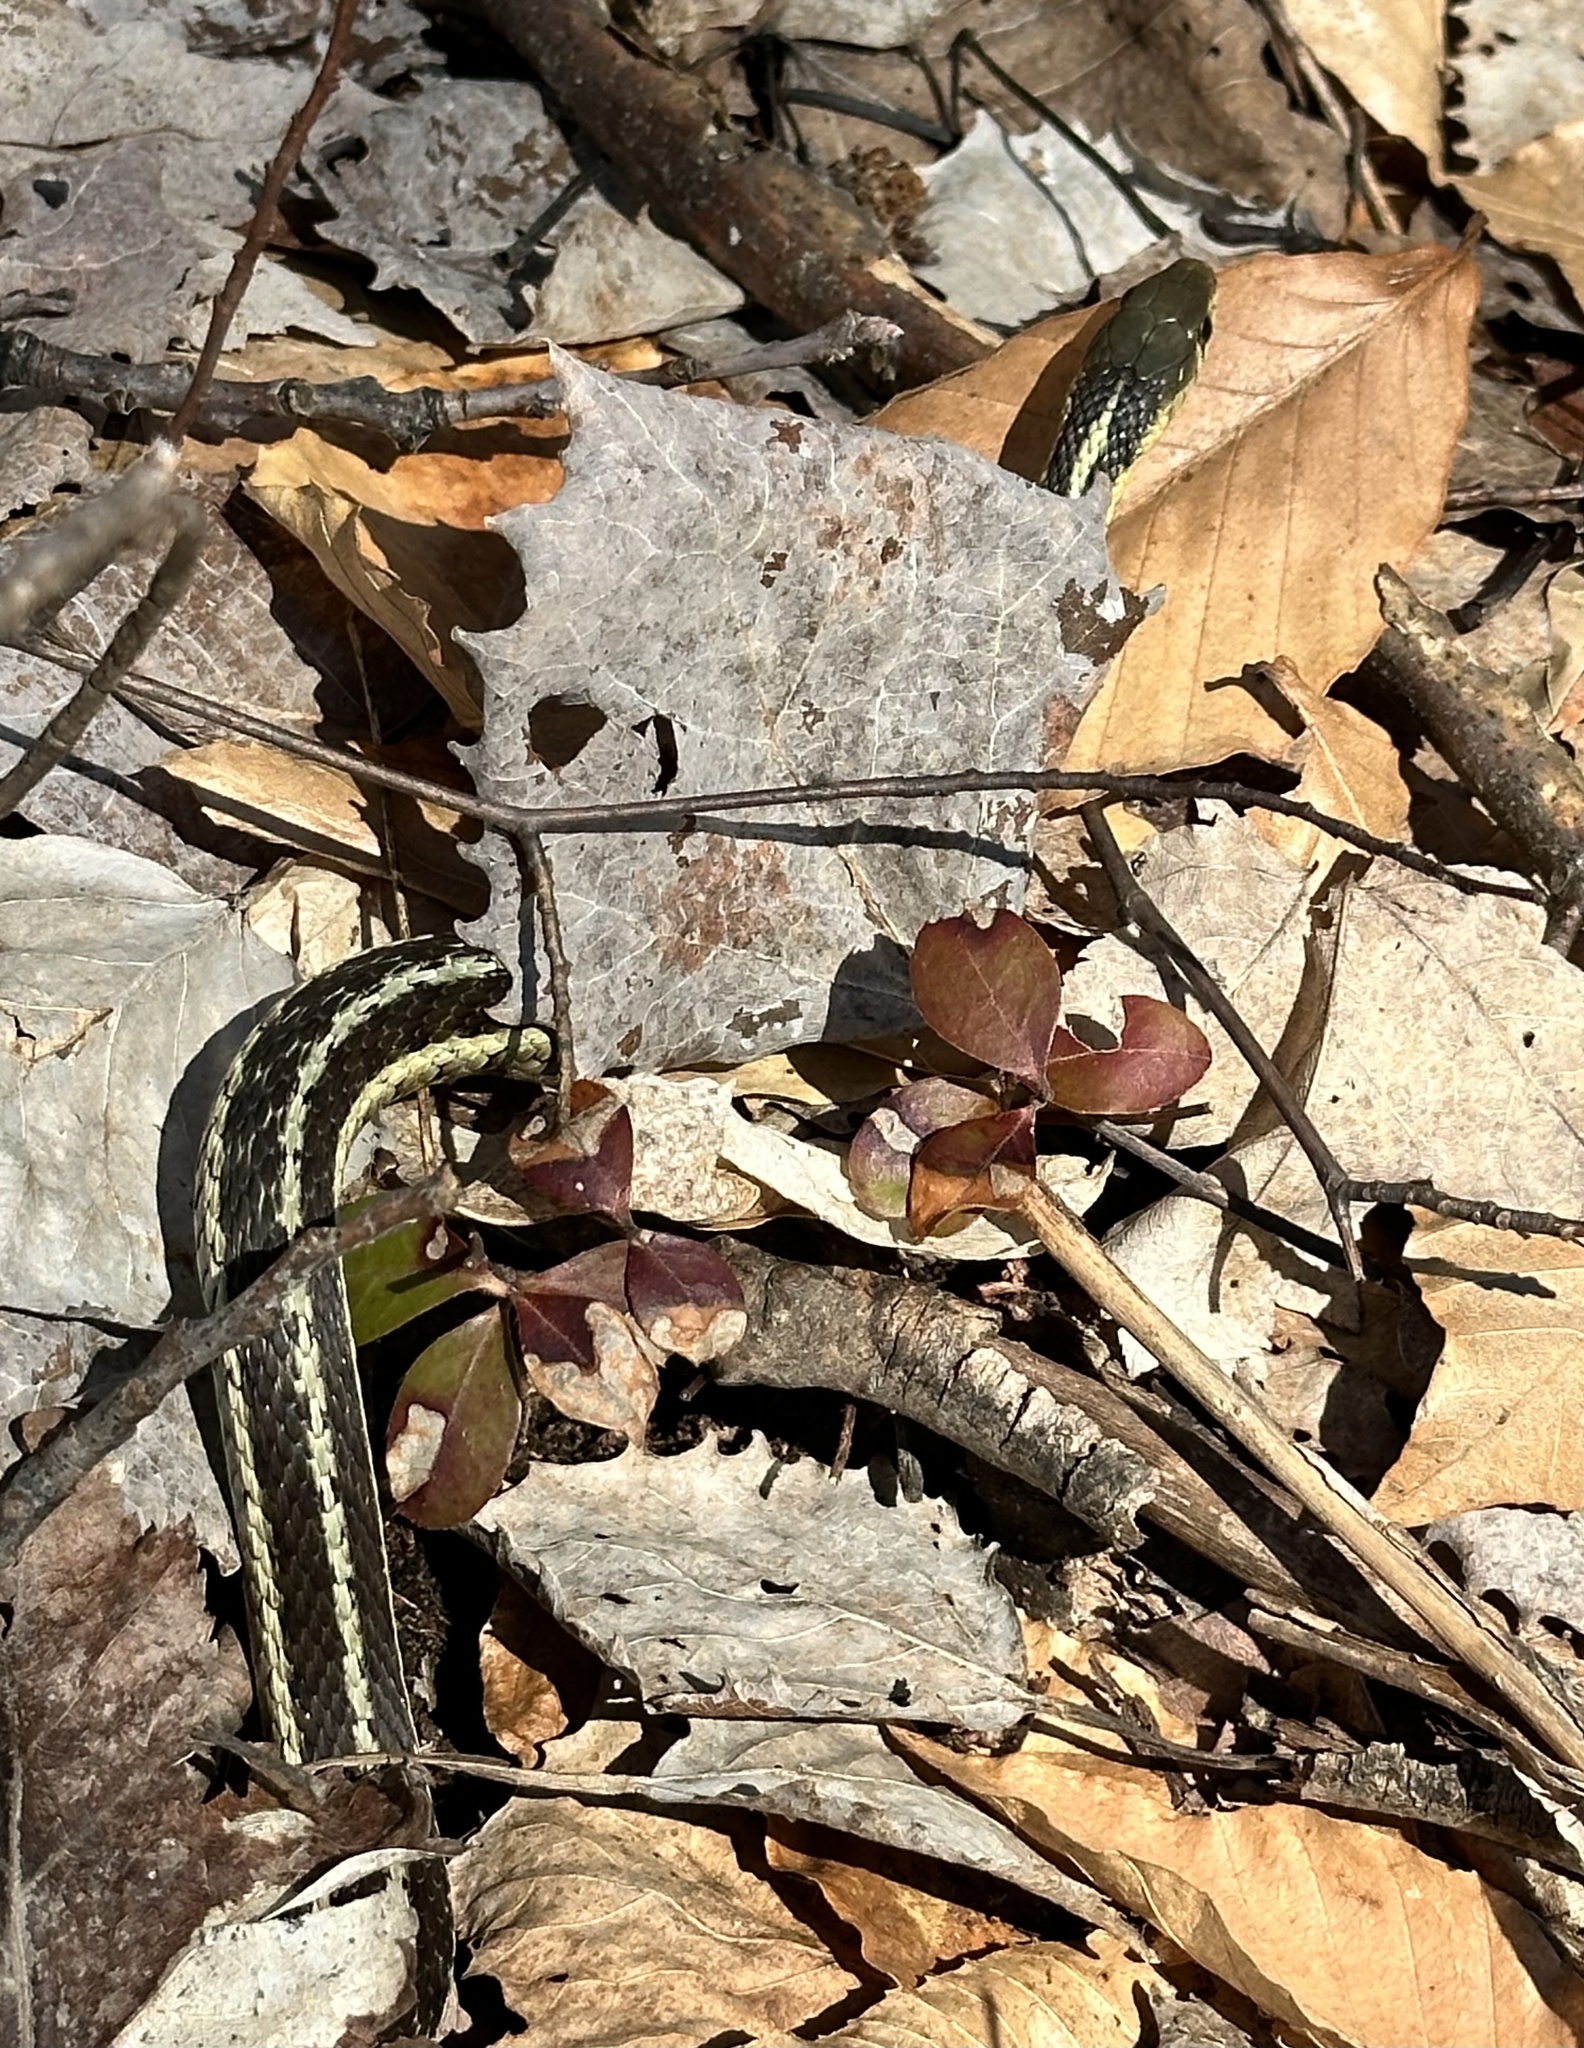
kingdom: Animalia
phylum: Chordata
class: Squamata
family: Colubridae
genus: Thamnophis
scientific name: Thamnophis sirtalis
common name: Common garter snake
